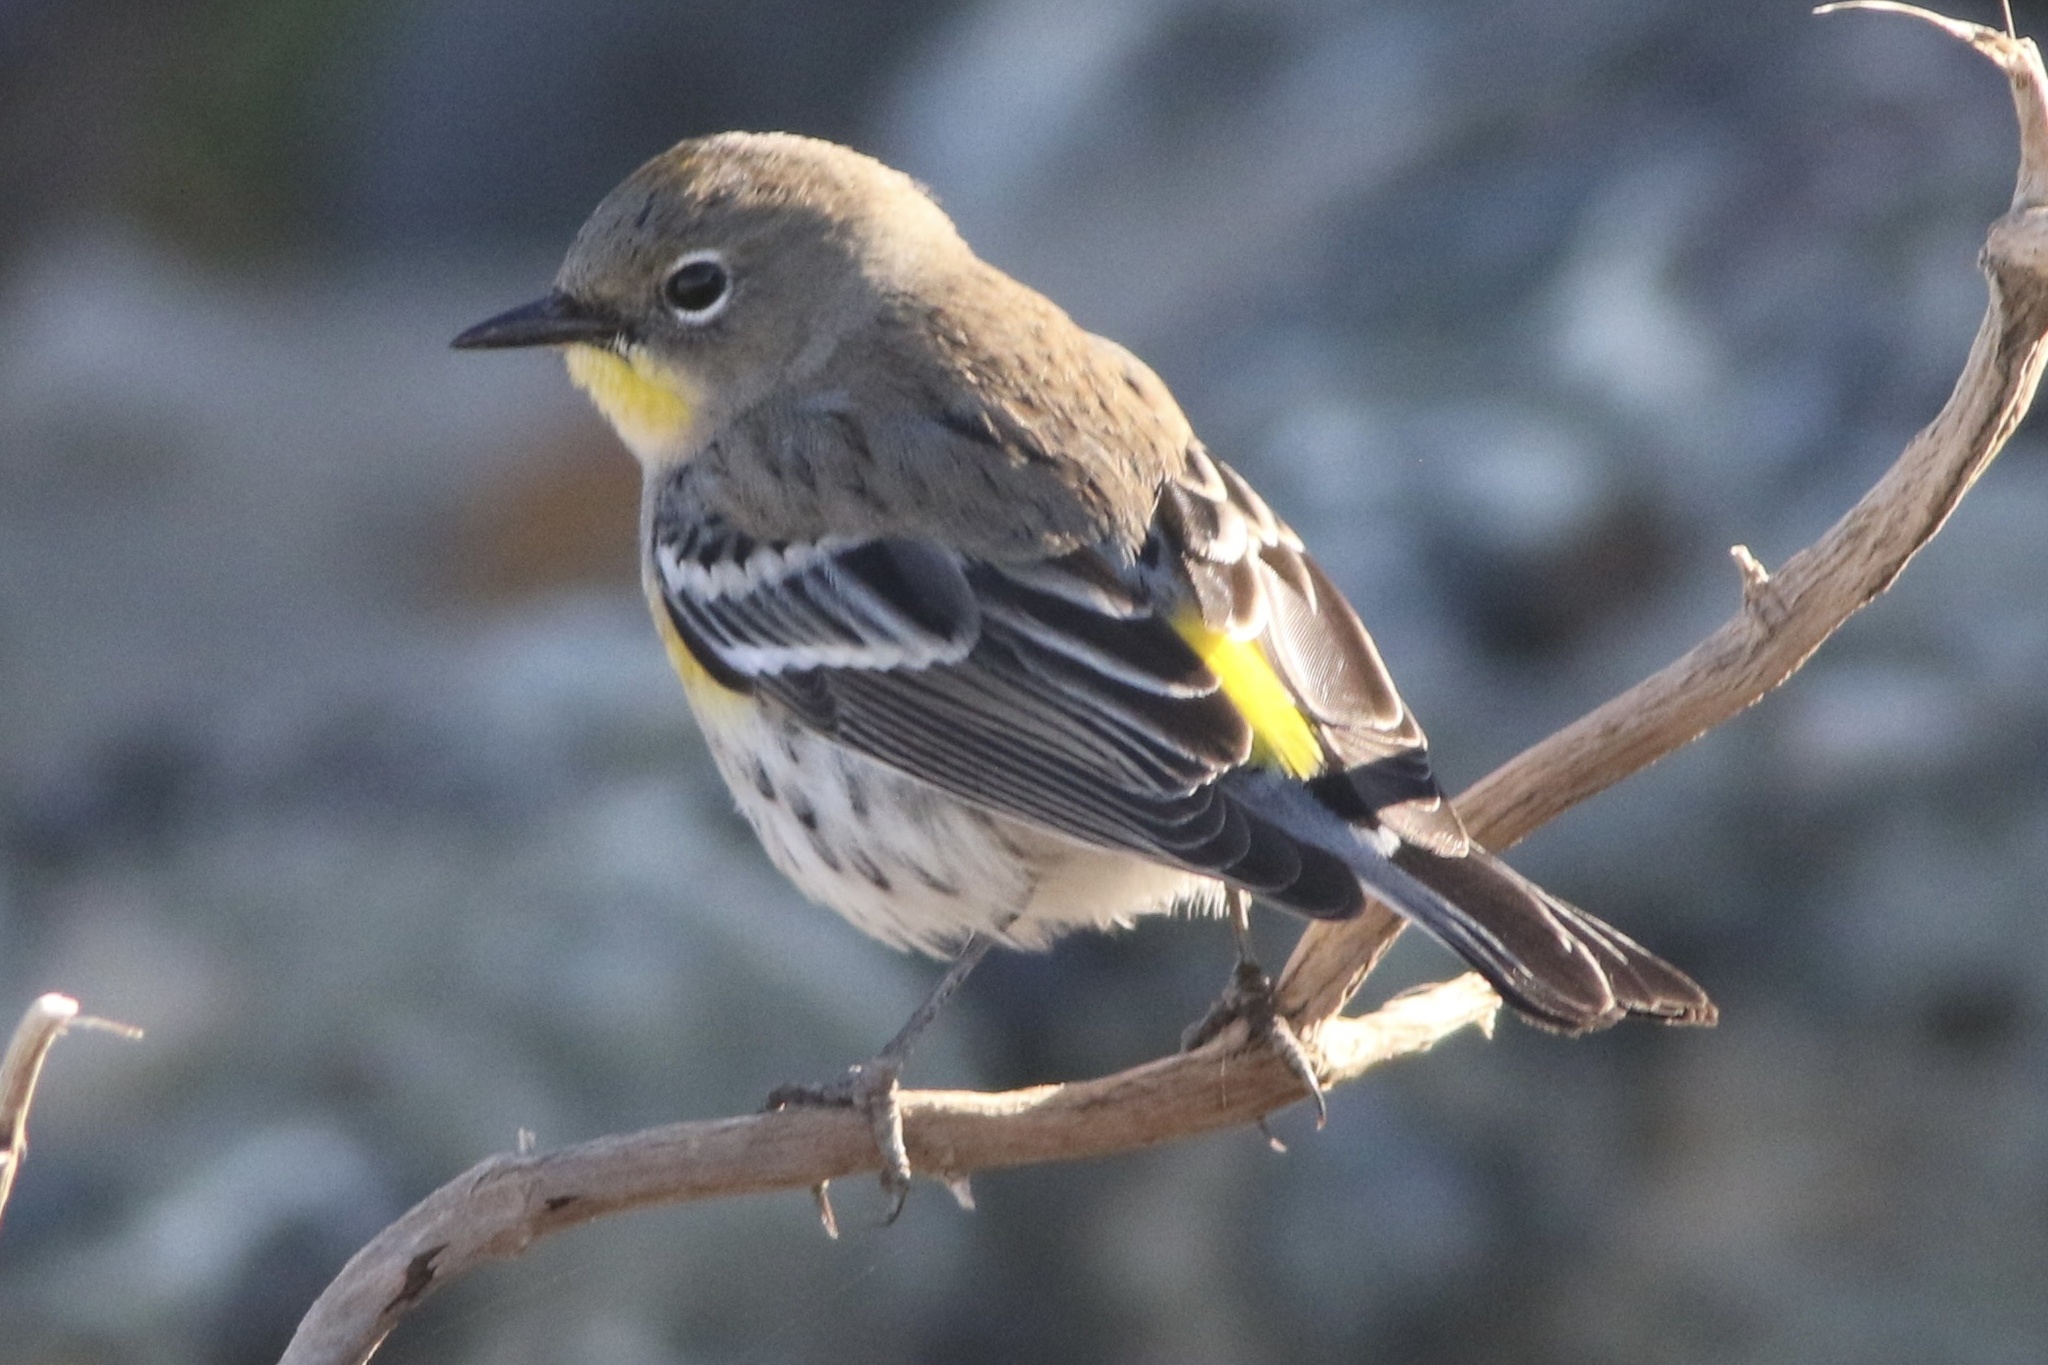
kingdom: Animalia
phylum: Chordata
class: Aves
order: Passeriformes
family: Parulidae
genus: Setophaga
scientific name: Setophaga coronata
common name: Myrtle warbler
